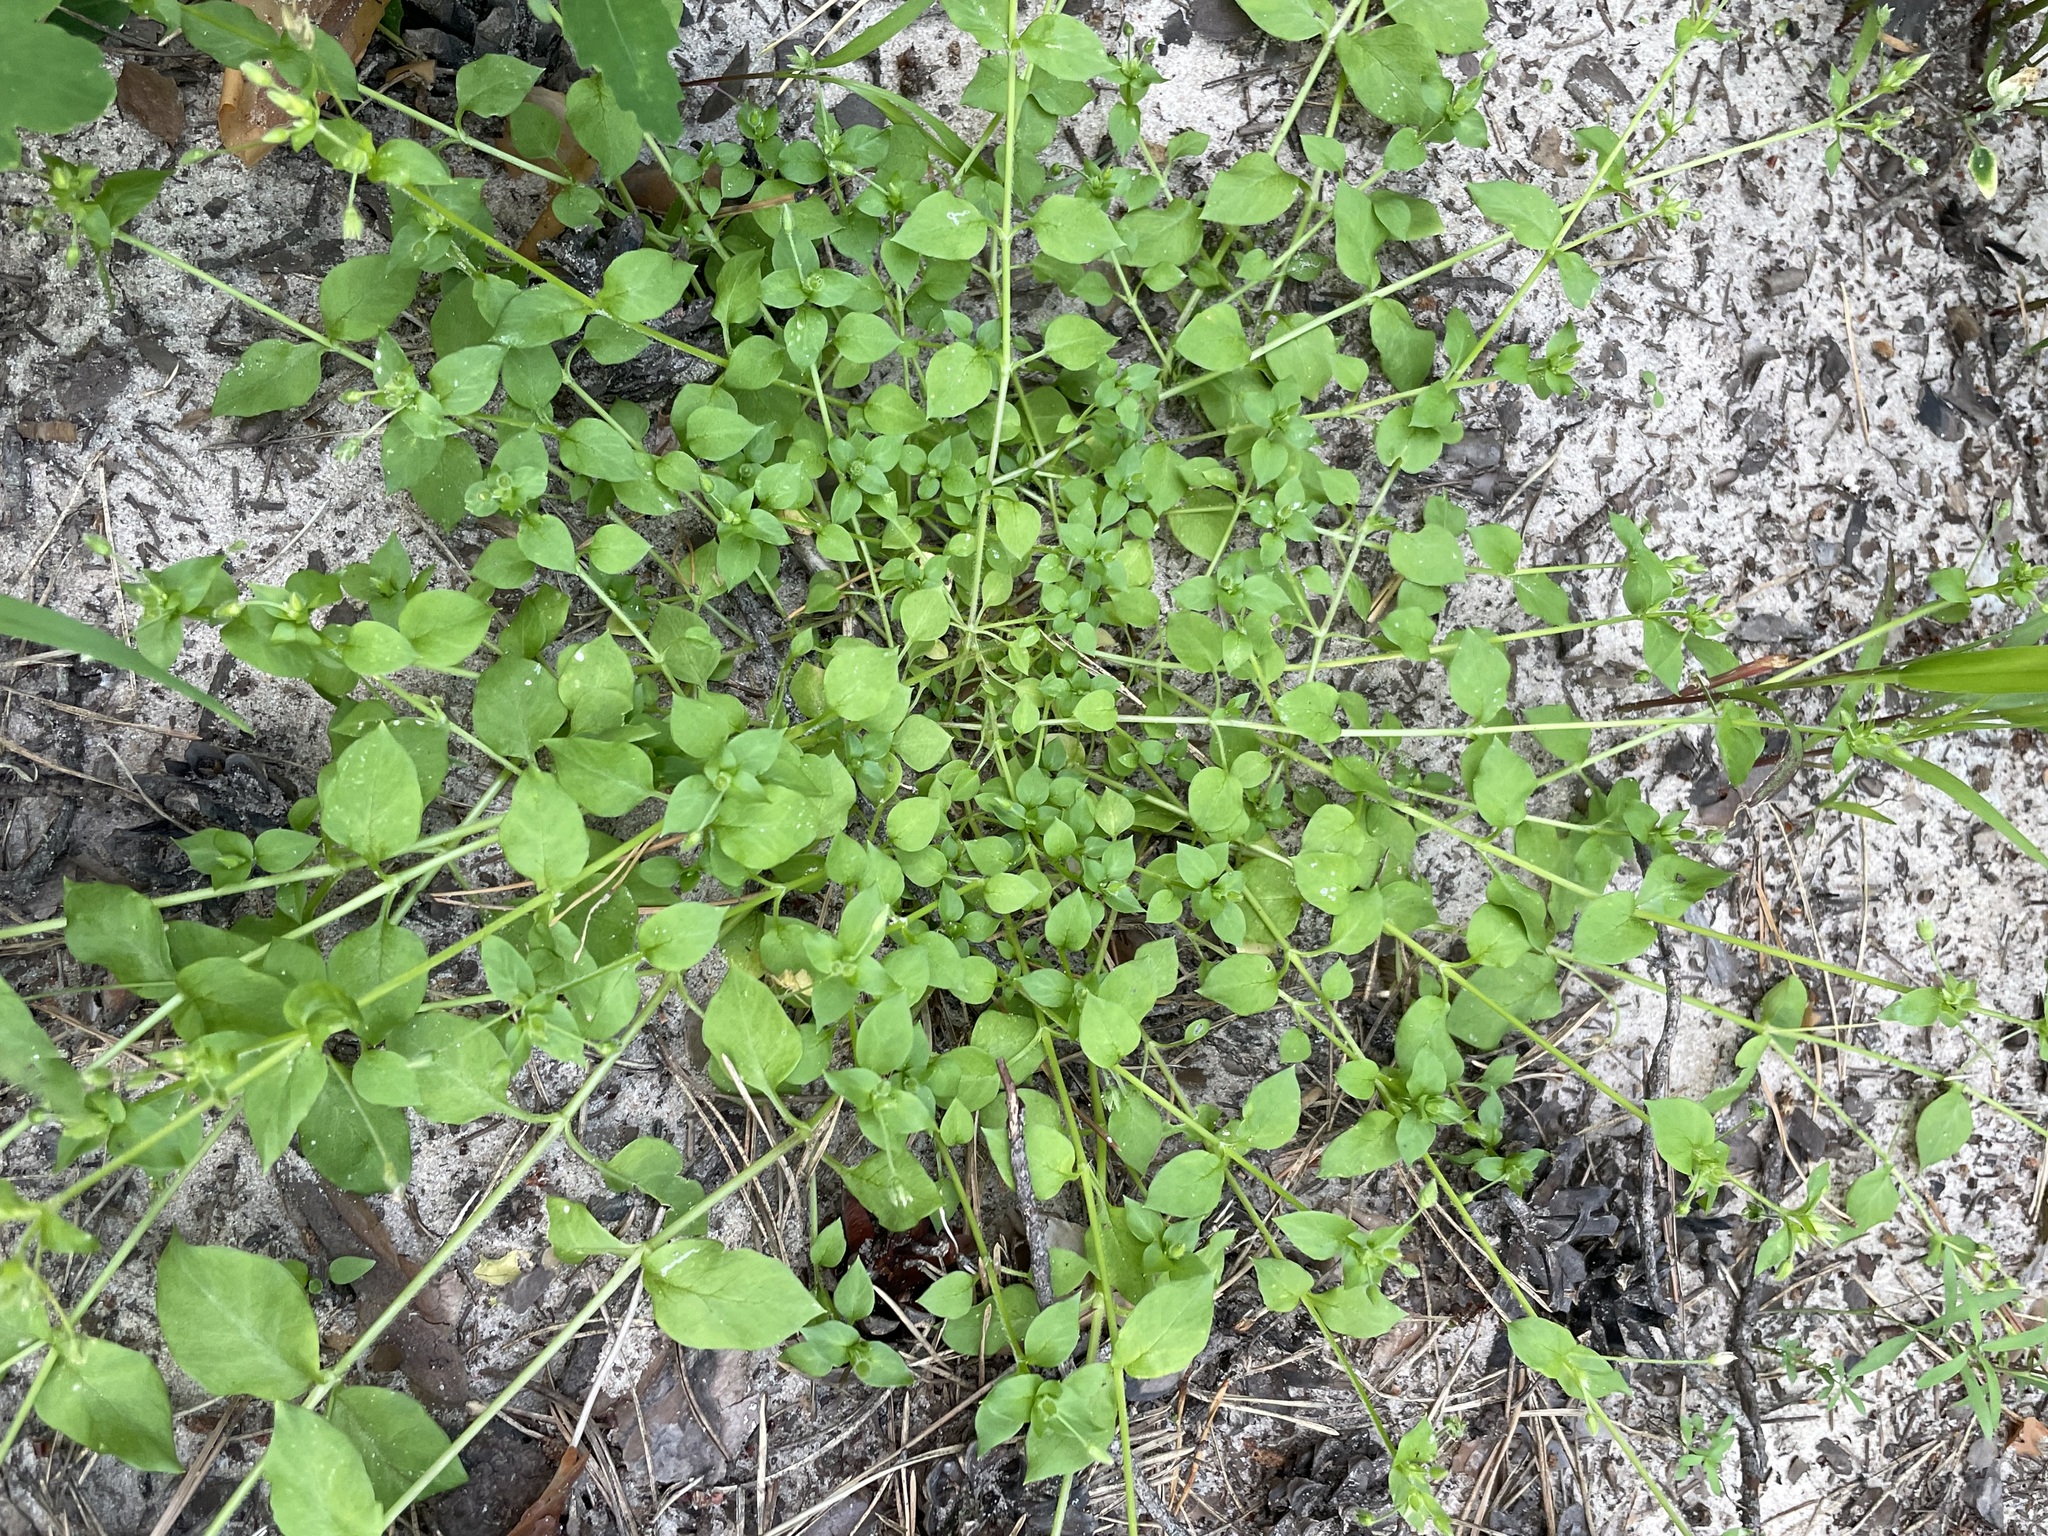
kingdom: Plantae
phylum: Tracheophyta
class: Magnoliopsida
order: Caryophyllales
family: Caryophyllaceae
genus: Stellaria
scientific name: Stellaria media
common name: Common chickweed
